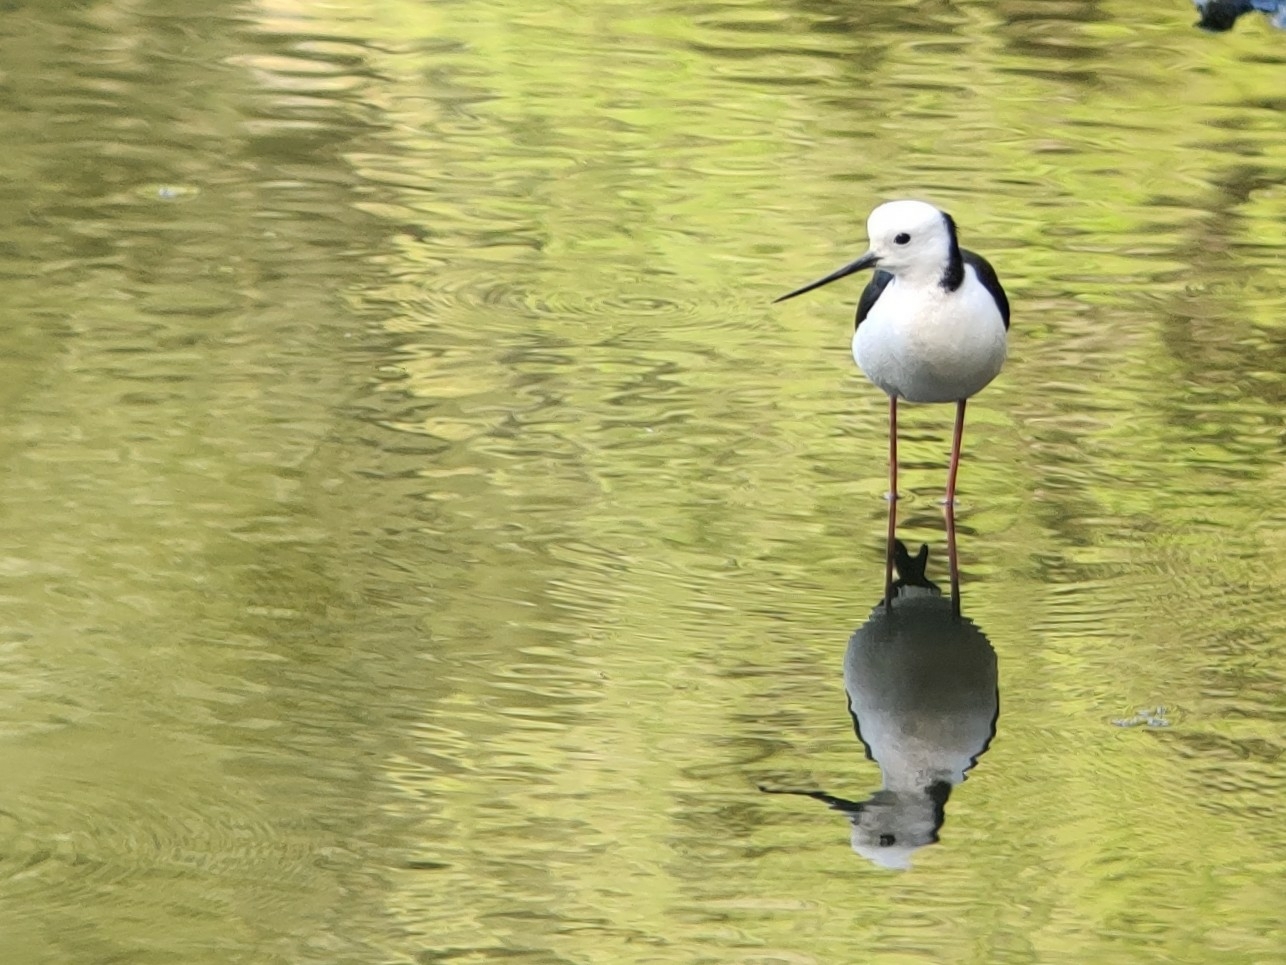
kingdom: Animalia
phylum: Chordata
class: Aves
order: Charadriiformes
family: Recurvirostridae
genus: Himantopus
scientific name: Himantopus leucocephalus
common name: White-headed stilt
